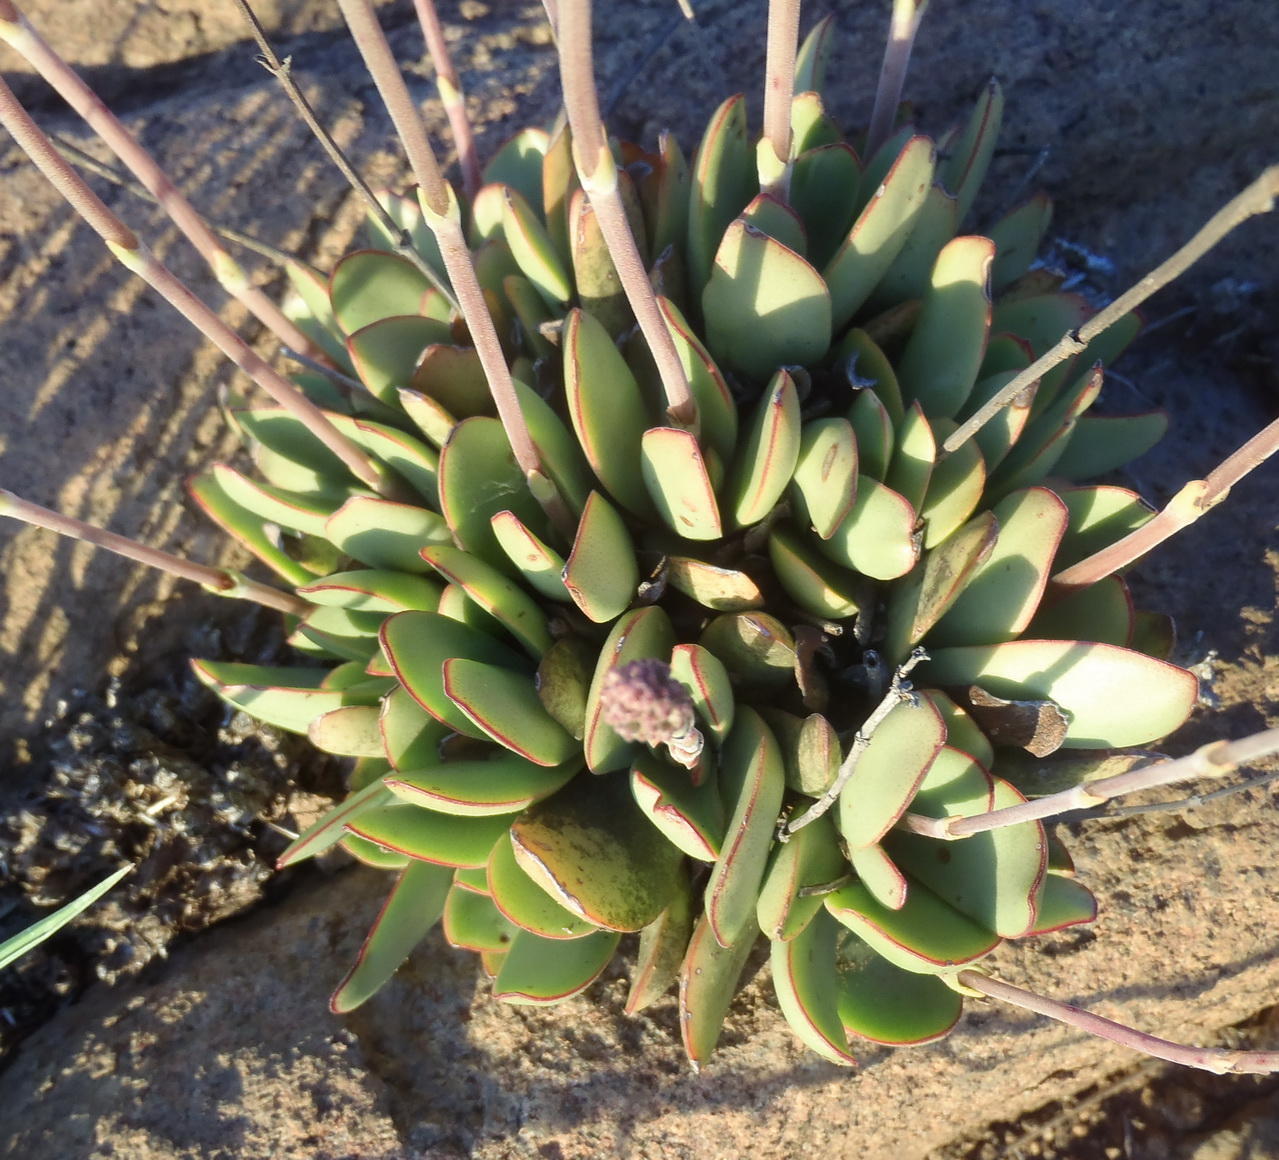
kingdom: Plantae
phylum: Tracheophyta
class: Magnoliopsida
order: Saxifragales
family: Crassulaceae
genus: Crassula
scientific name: Crassula nudicaulis
